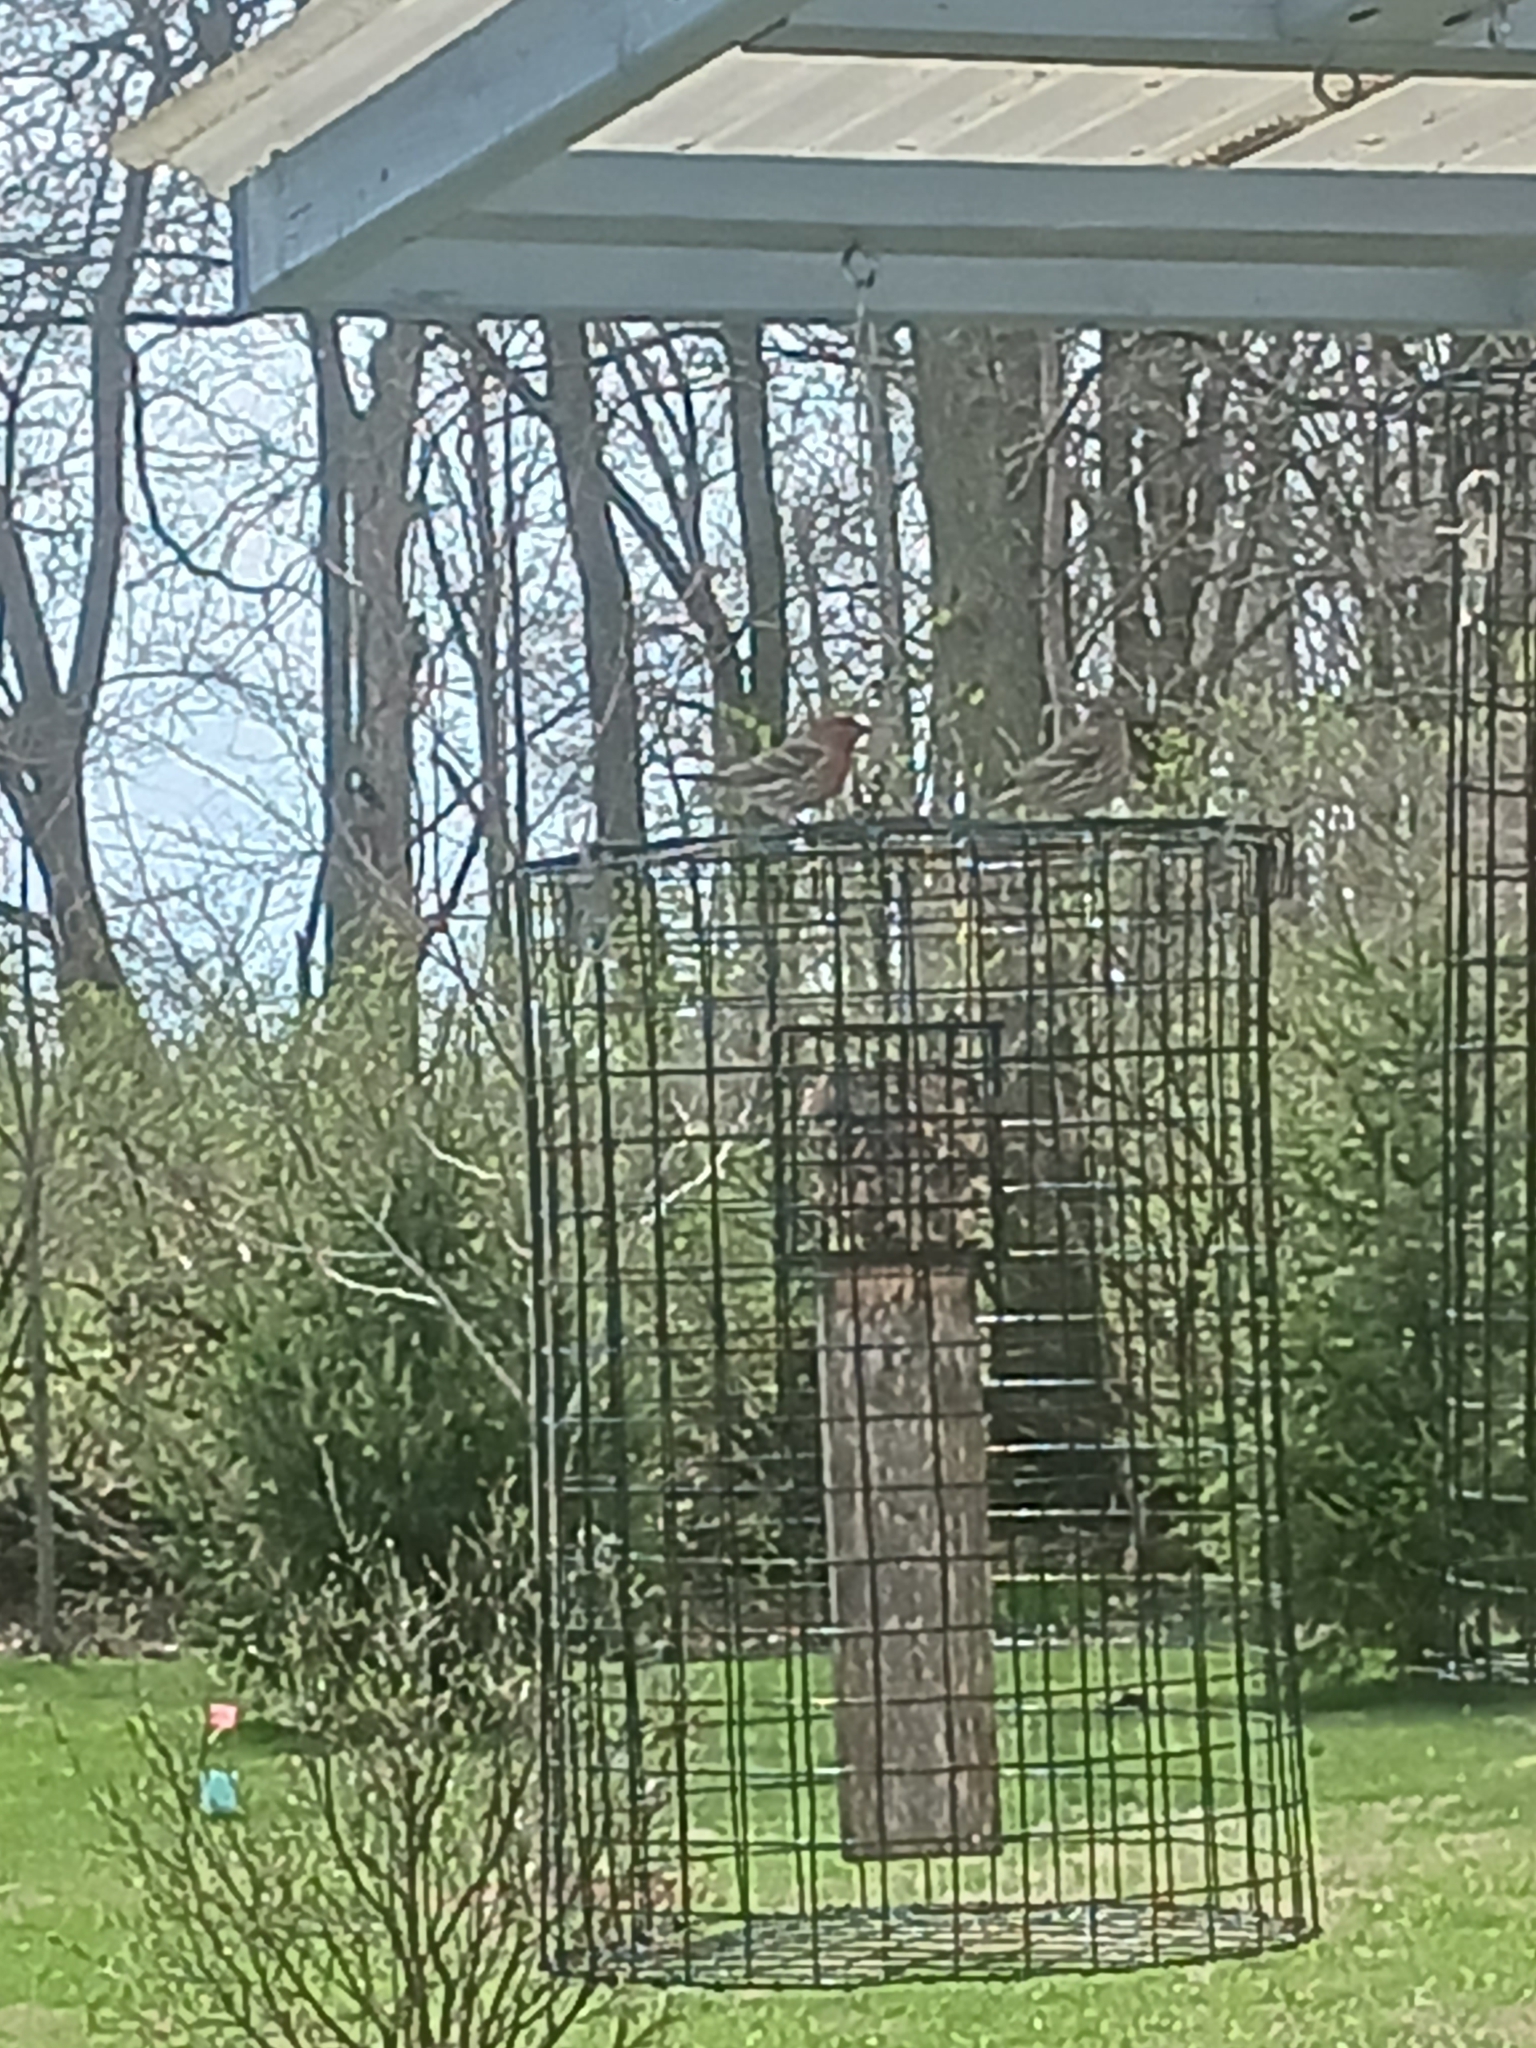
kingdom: Animalia
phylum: Chordata
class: Aves
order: Passeriformes
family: Fringillidae
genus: Haemorhous
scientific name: Haemorhous mexicanus
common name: House finch
